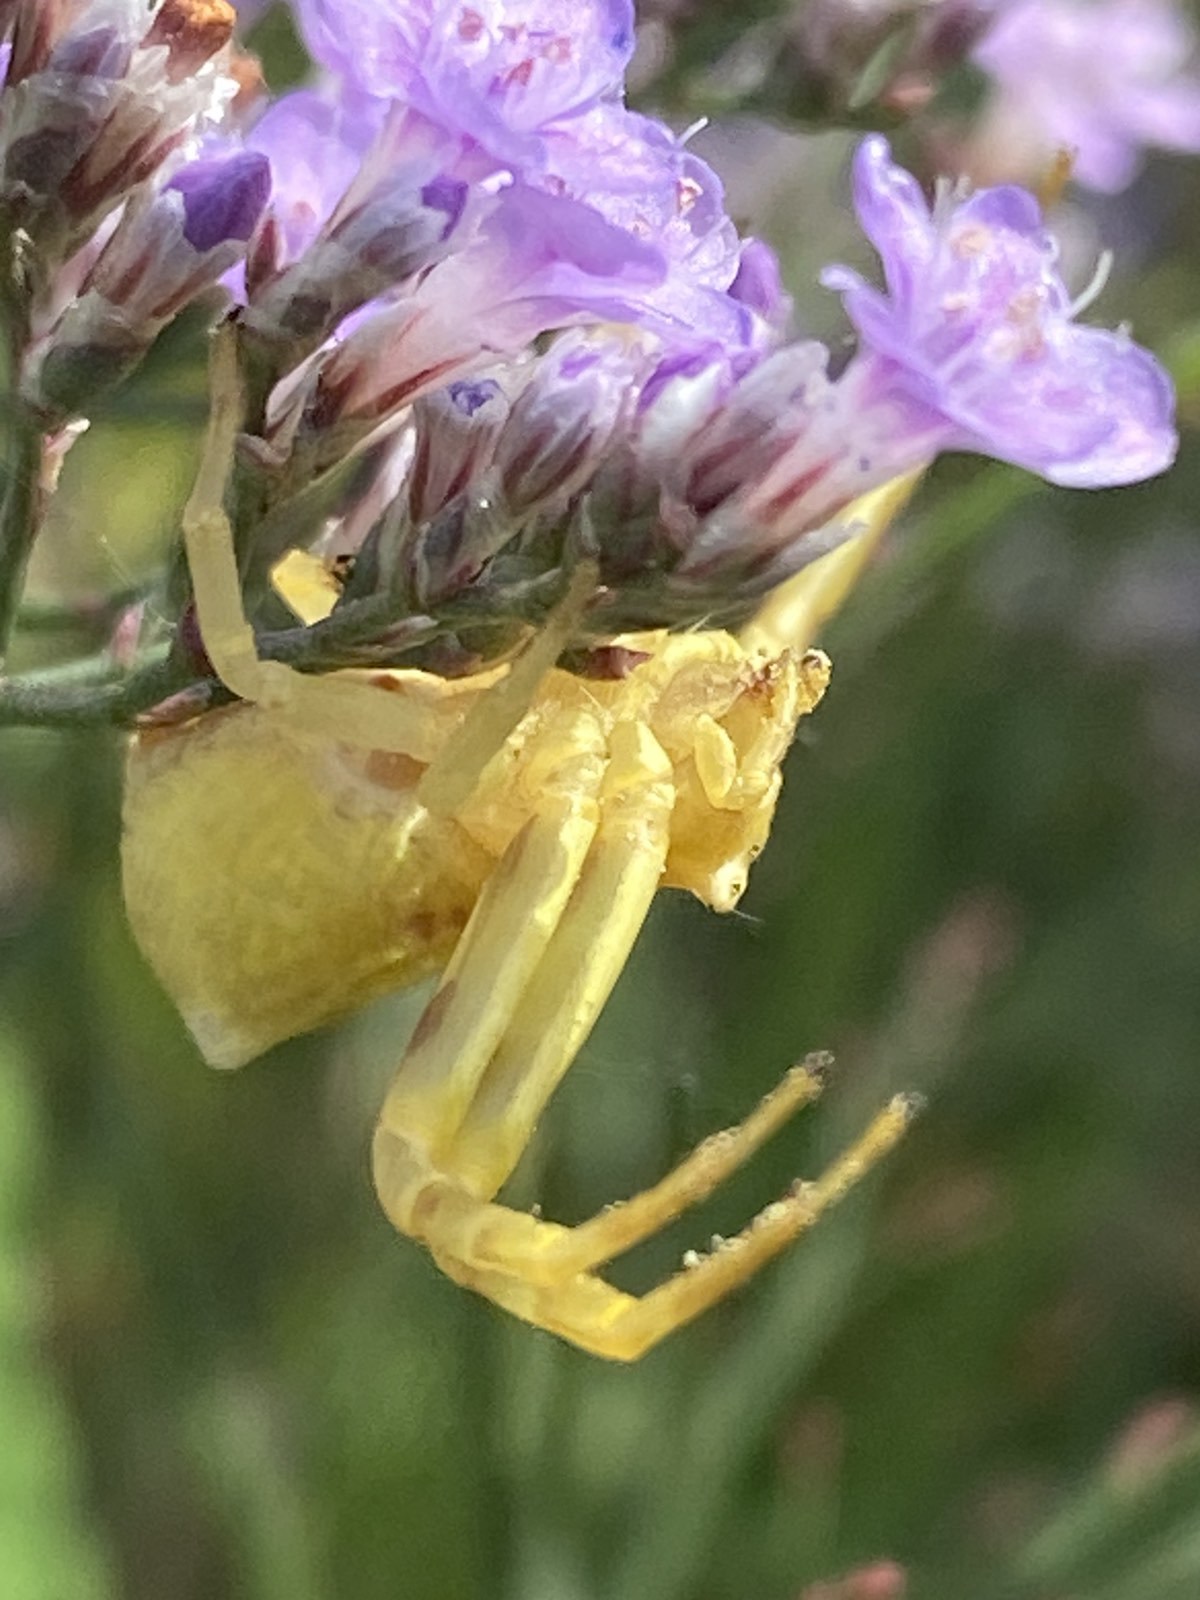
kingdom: Animalia
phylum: Arthropoda
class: Arachnida
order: Araneae
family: Thomisidae
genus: Thomisus
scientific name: Thomisus onustus
